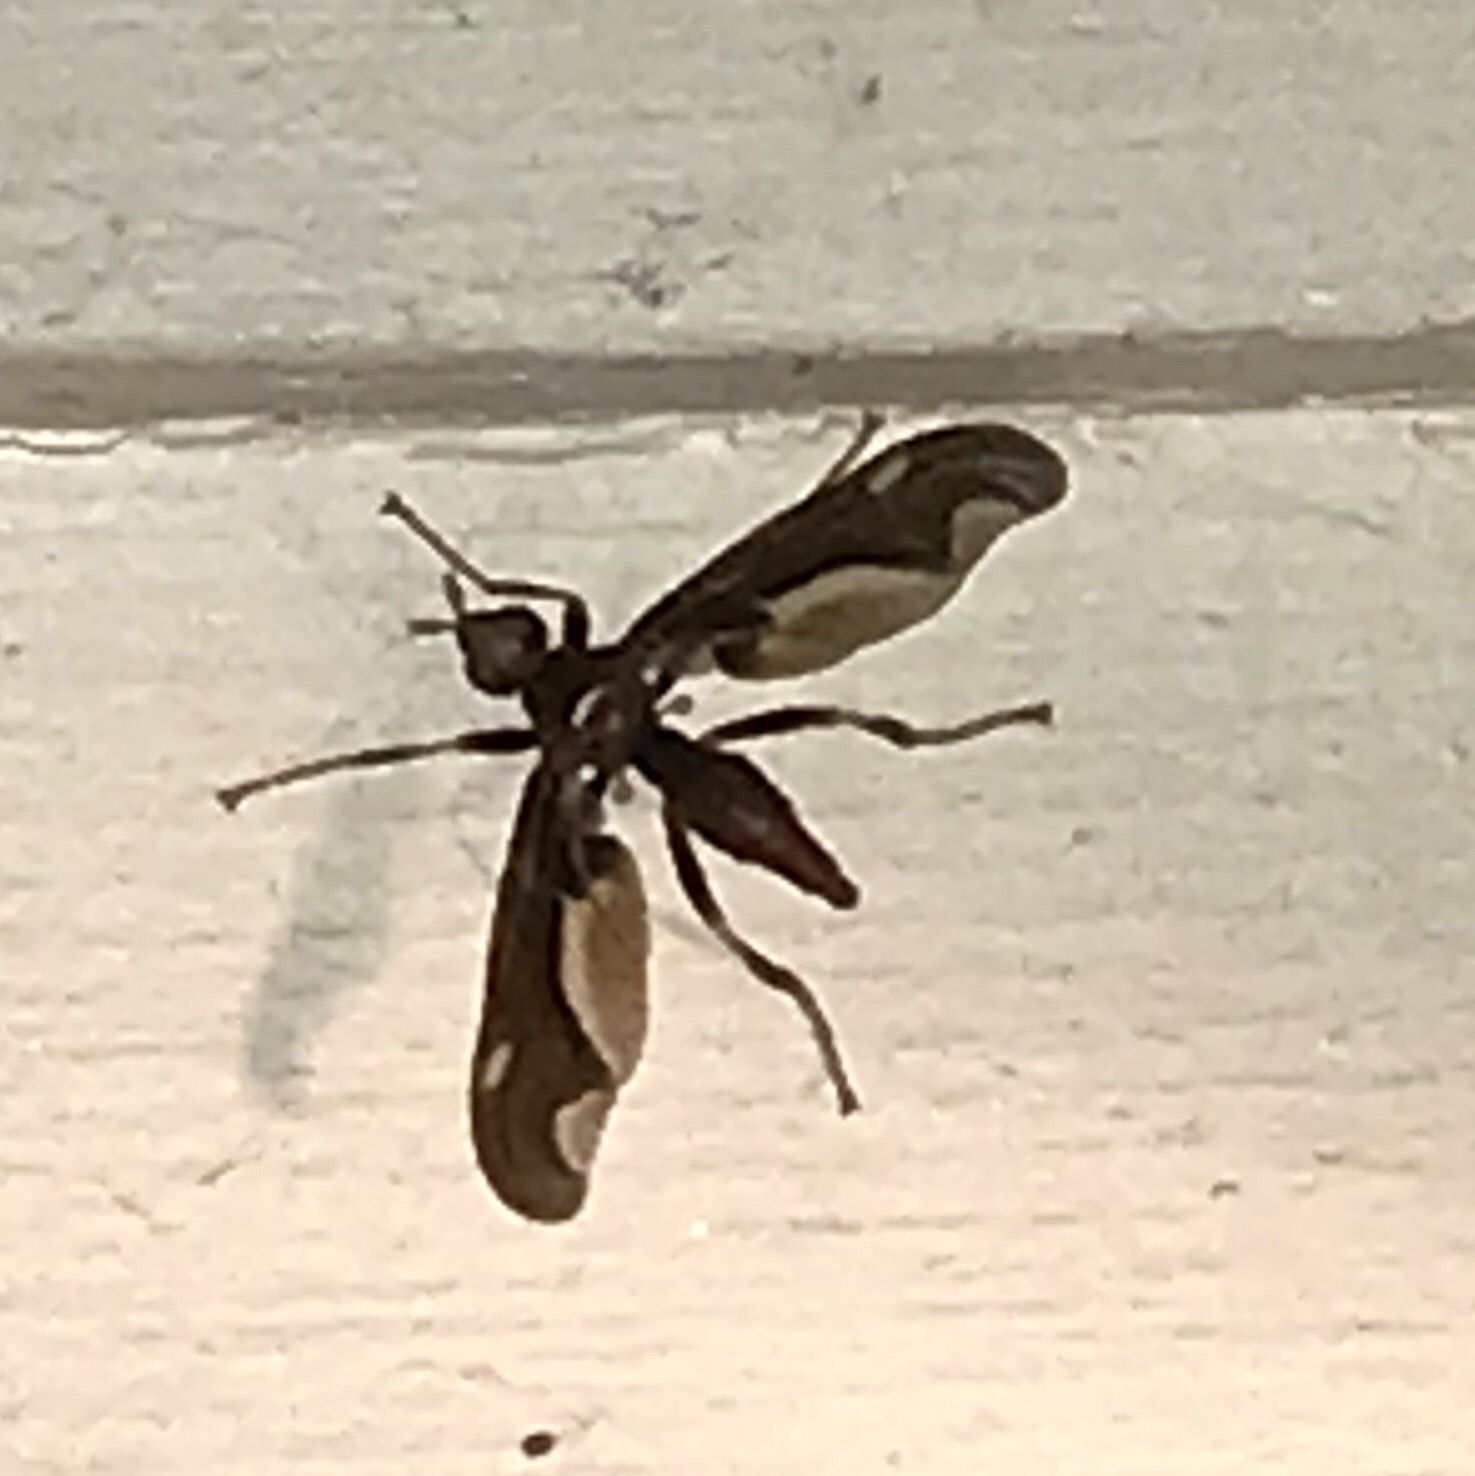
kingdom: Animalia
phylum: Arthropoda
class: Insecta
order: Diptera
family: Pyrgotidae
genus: Pyrgota
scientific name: Pyrgota undata
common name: Waved light fly
